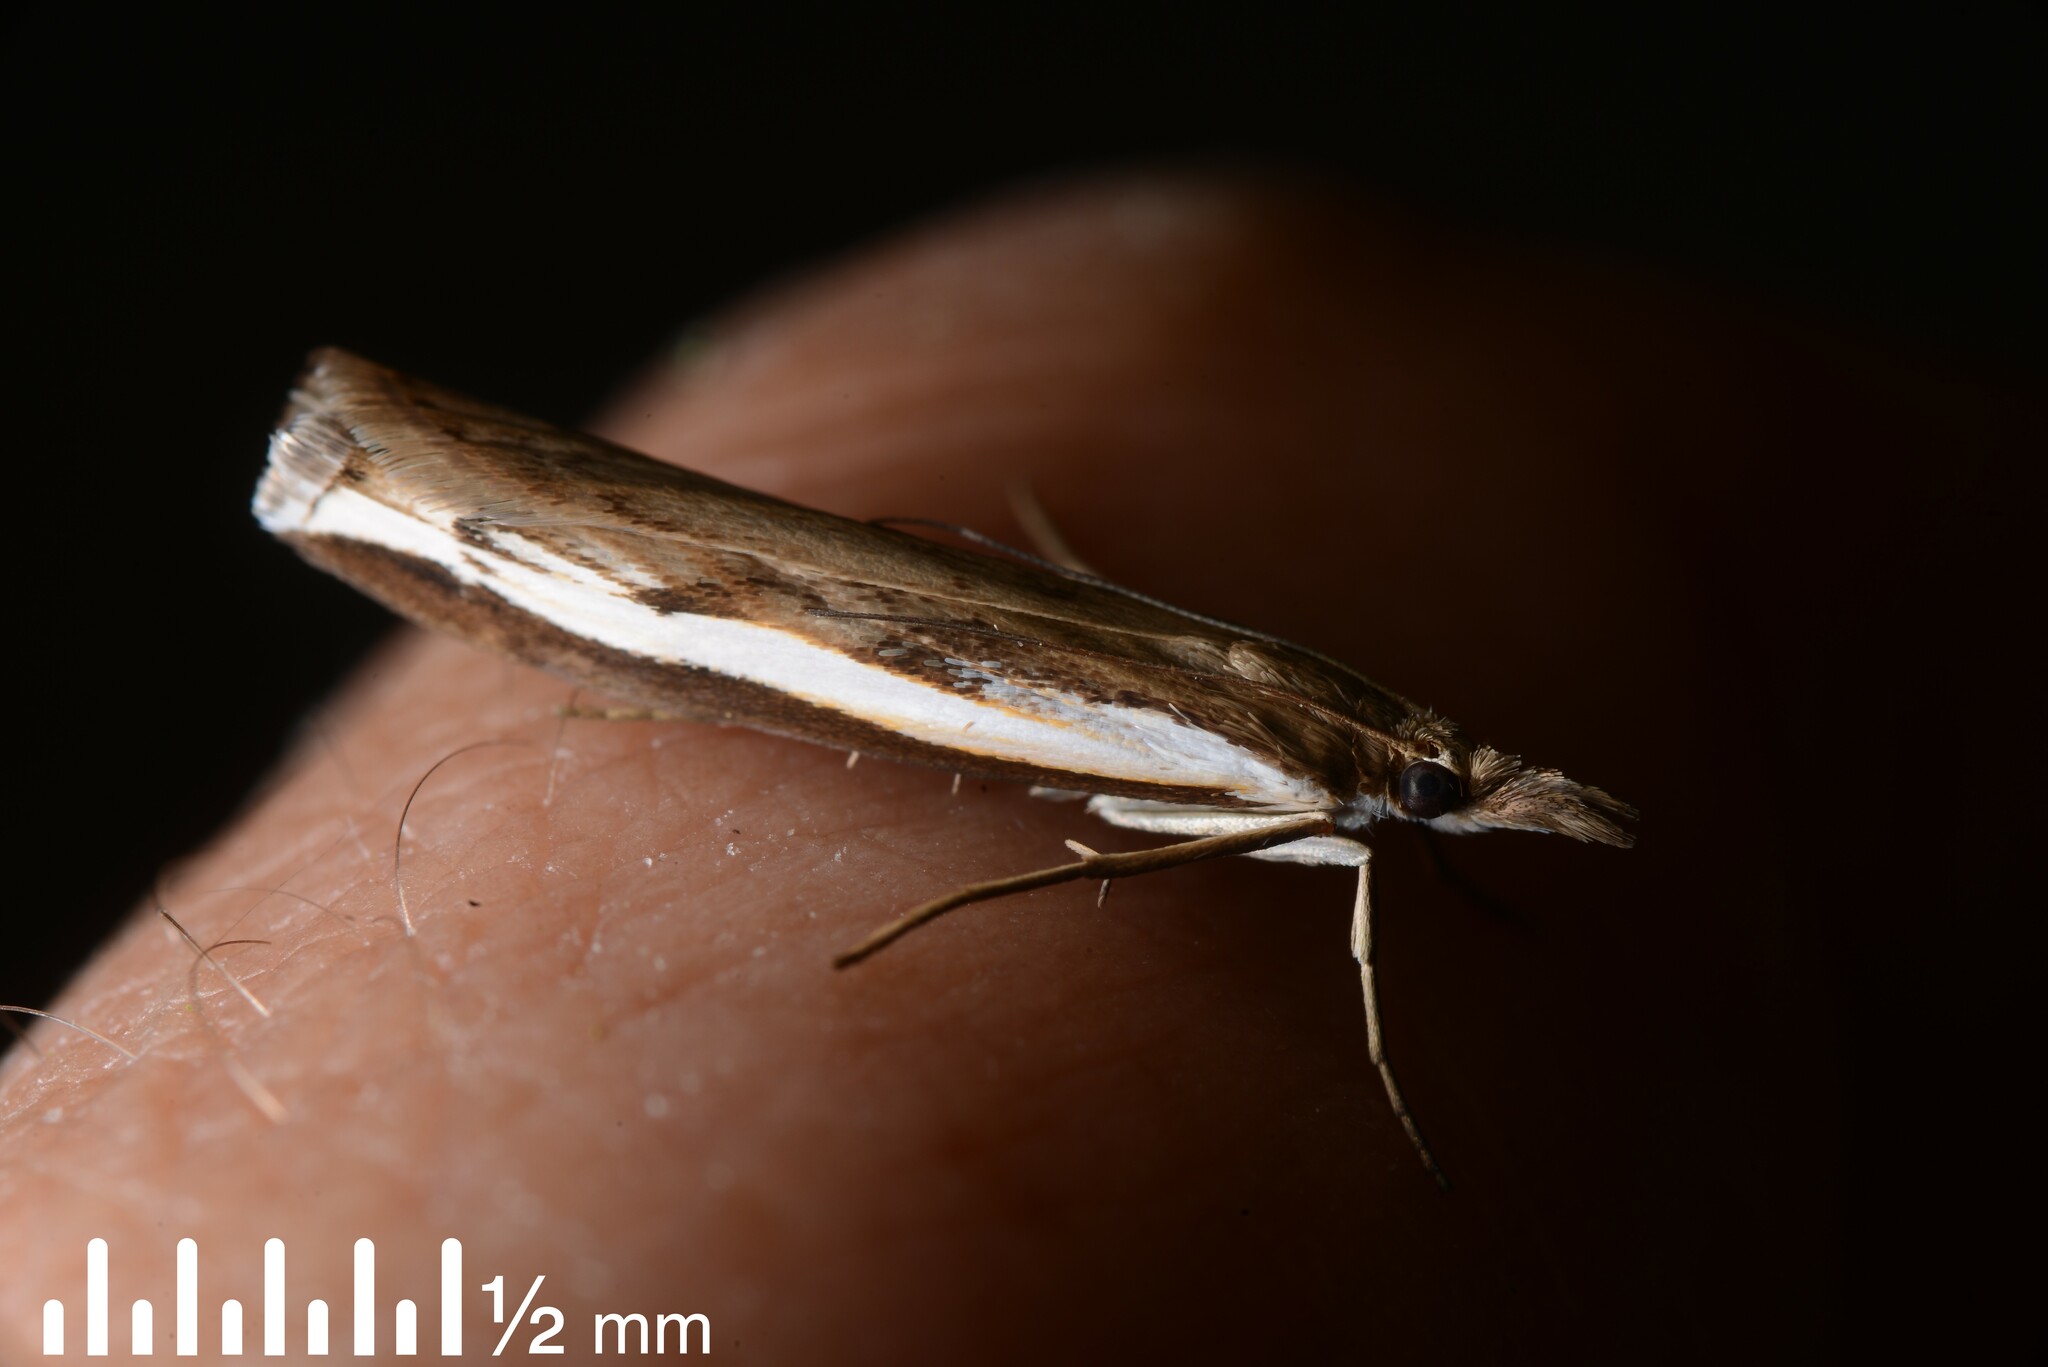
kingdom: Animalia
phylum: Arthropoda
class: Insecta
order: Lepidoptera
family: Crambidae
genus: Orocrambus
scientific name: Orocrambus flexuosellus
